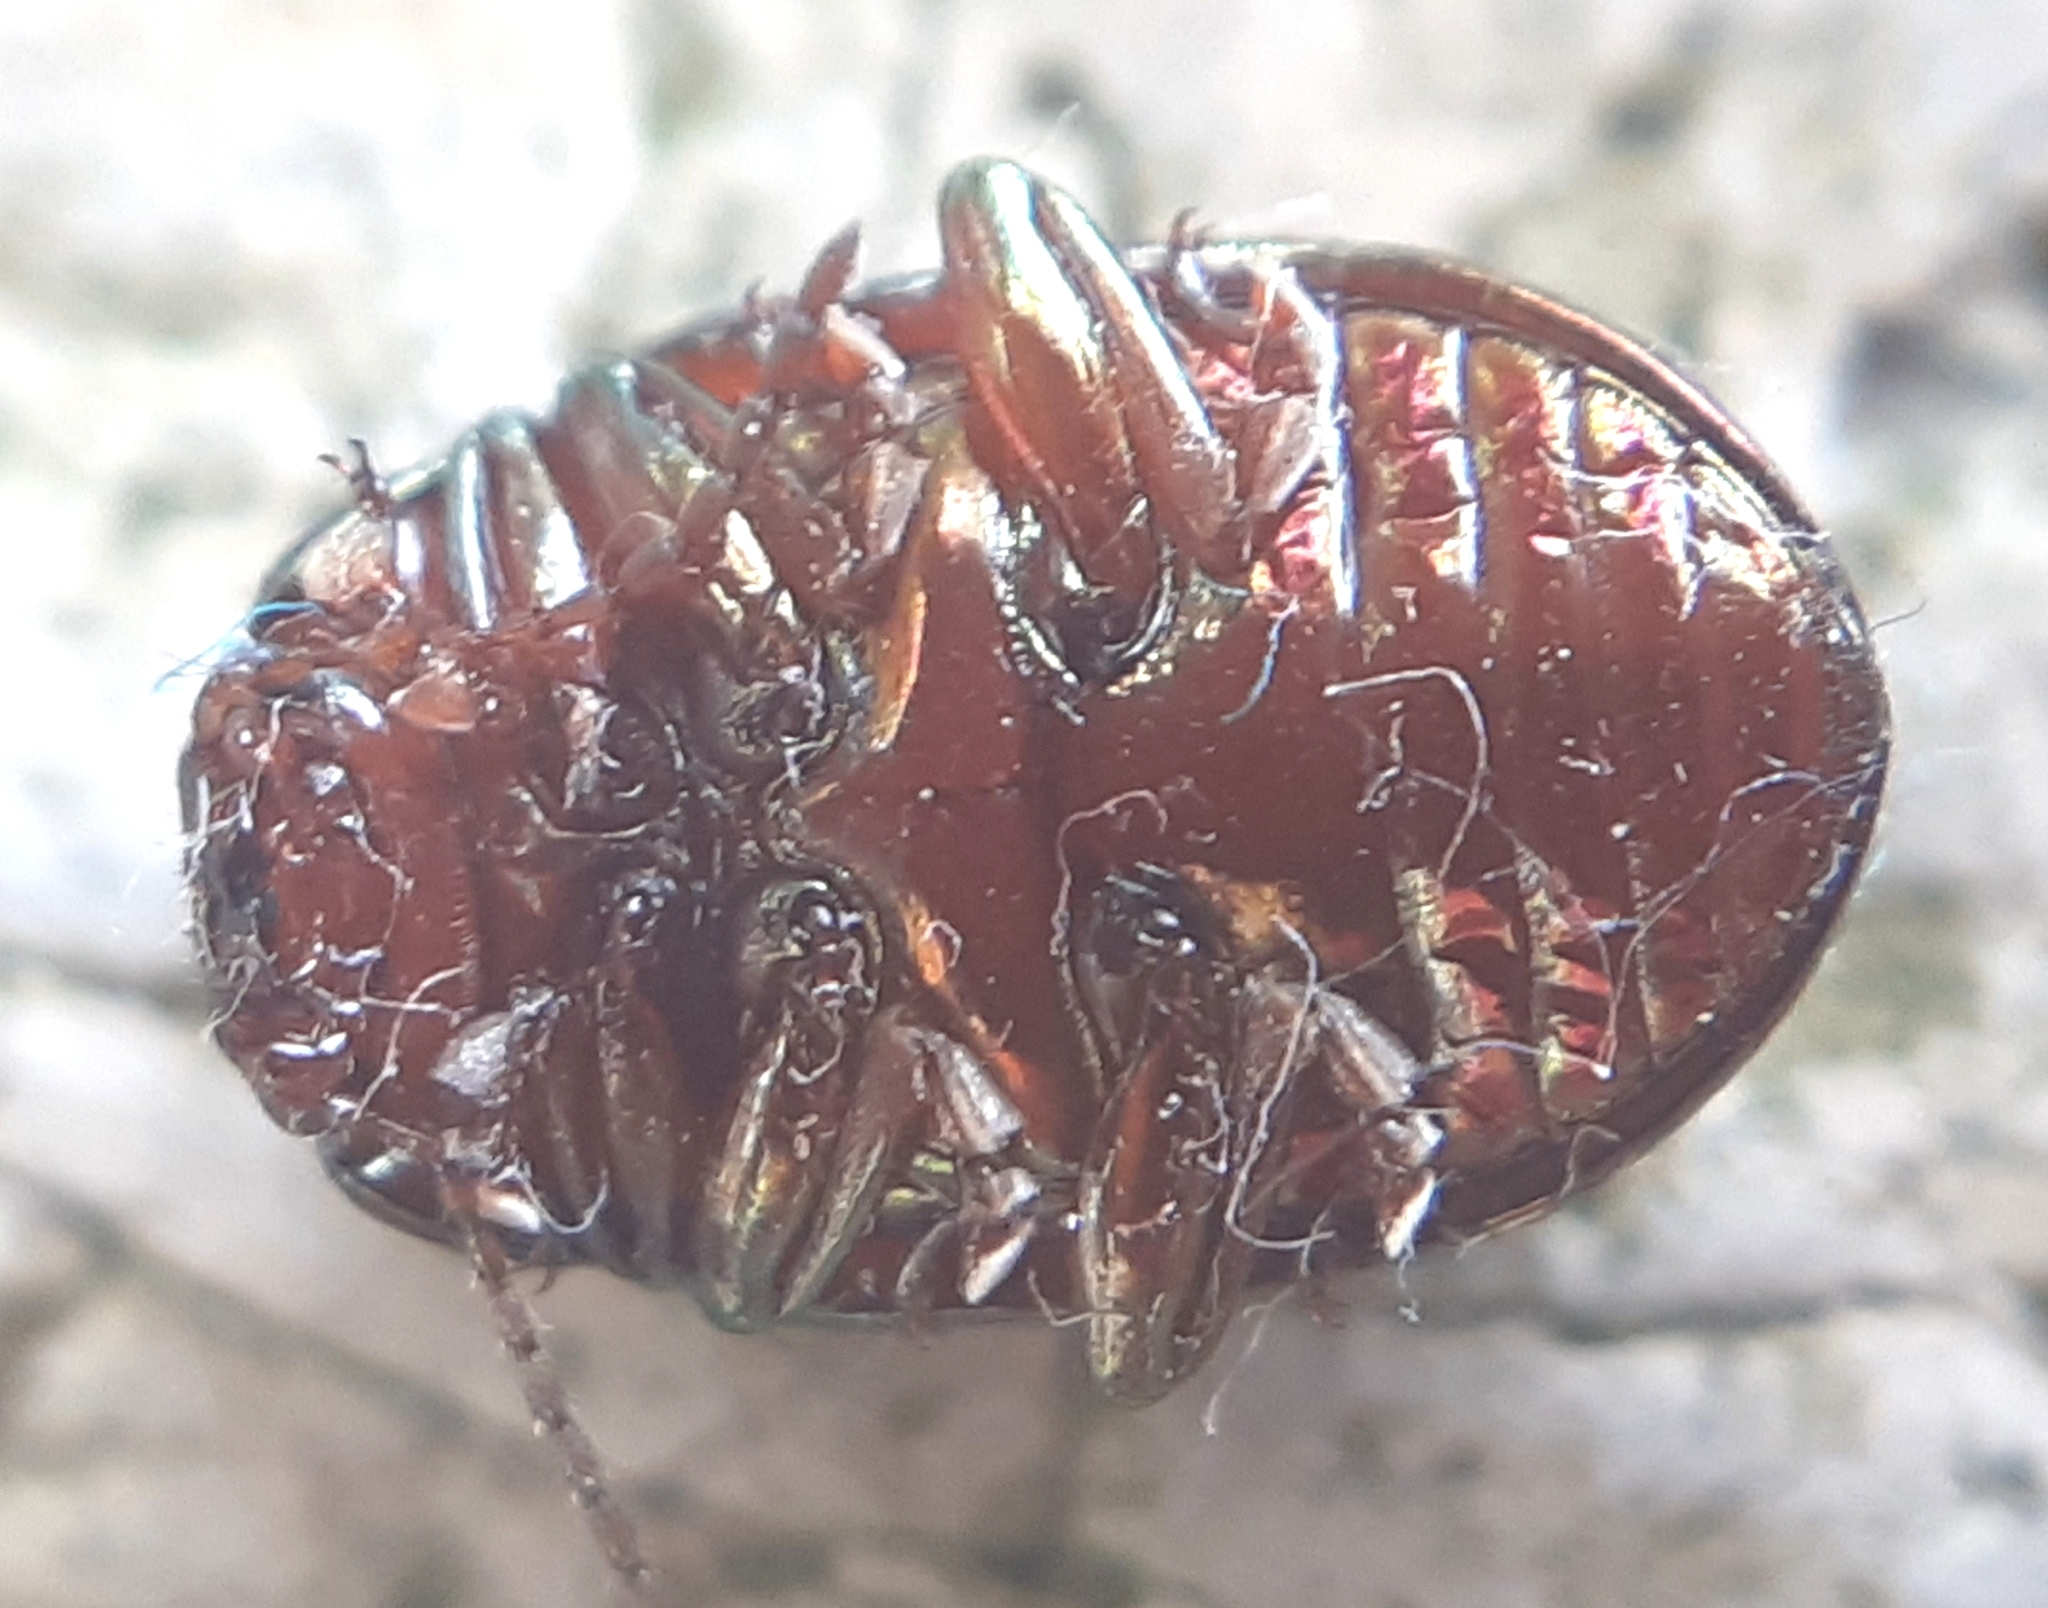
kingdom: Animalia
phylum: Arthropoda
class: Insecta
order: Coleoptera
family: Chrysomelidae
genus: Chrysolina
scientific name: Chrysolina americana
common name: Rosemary beetle
